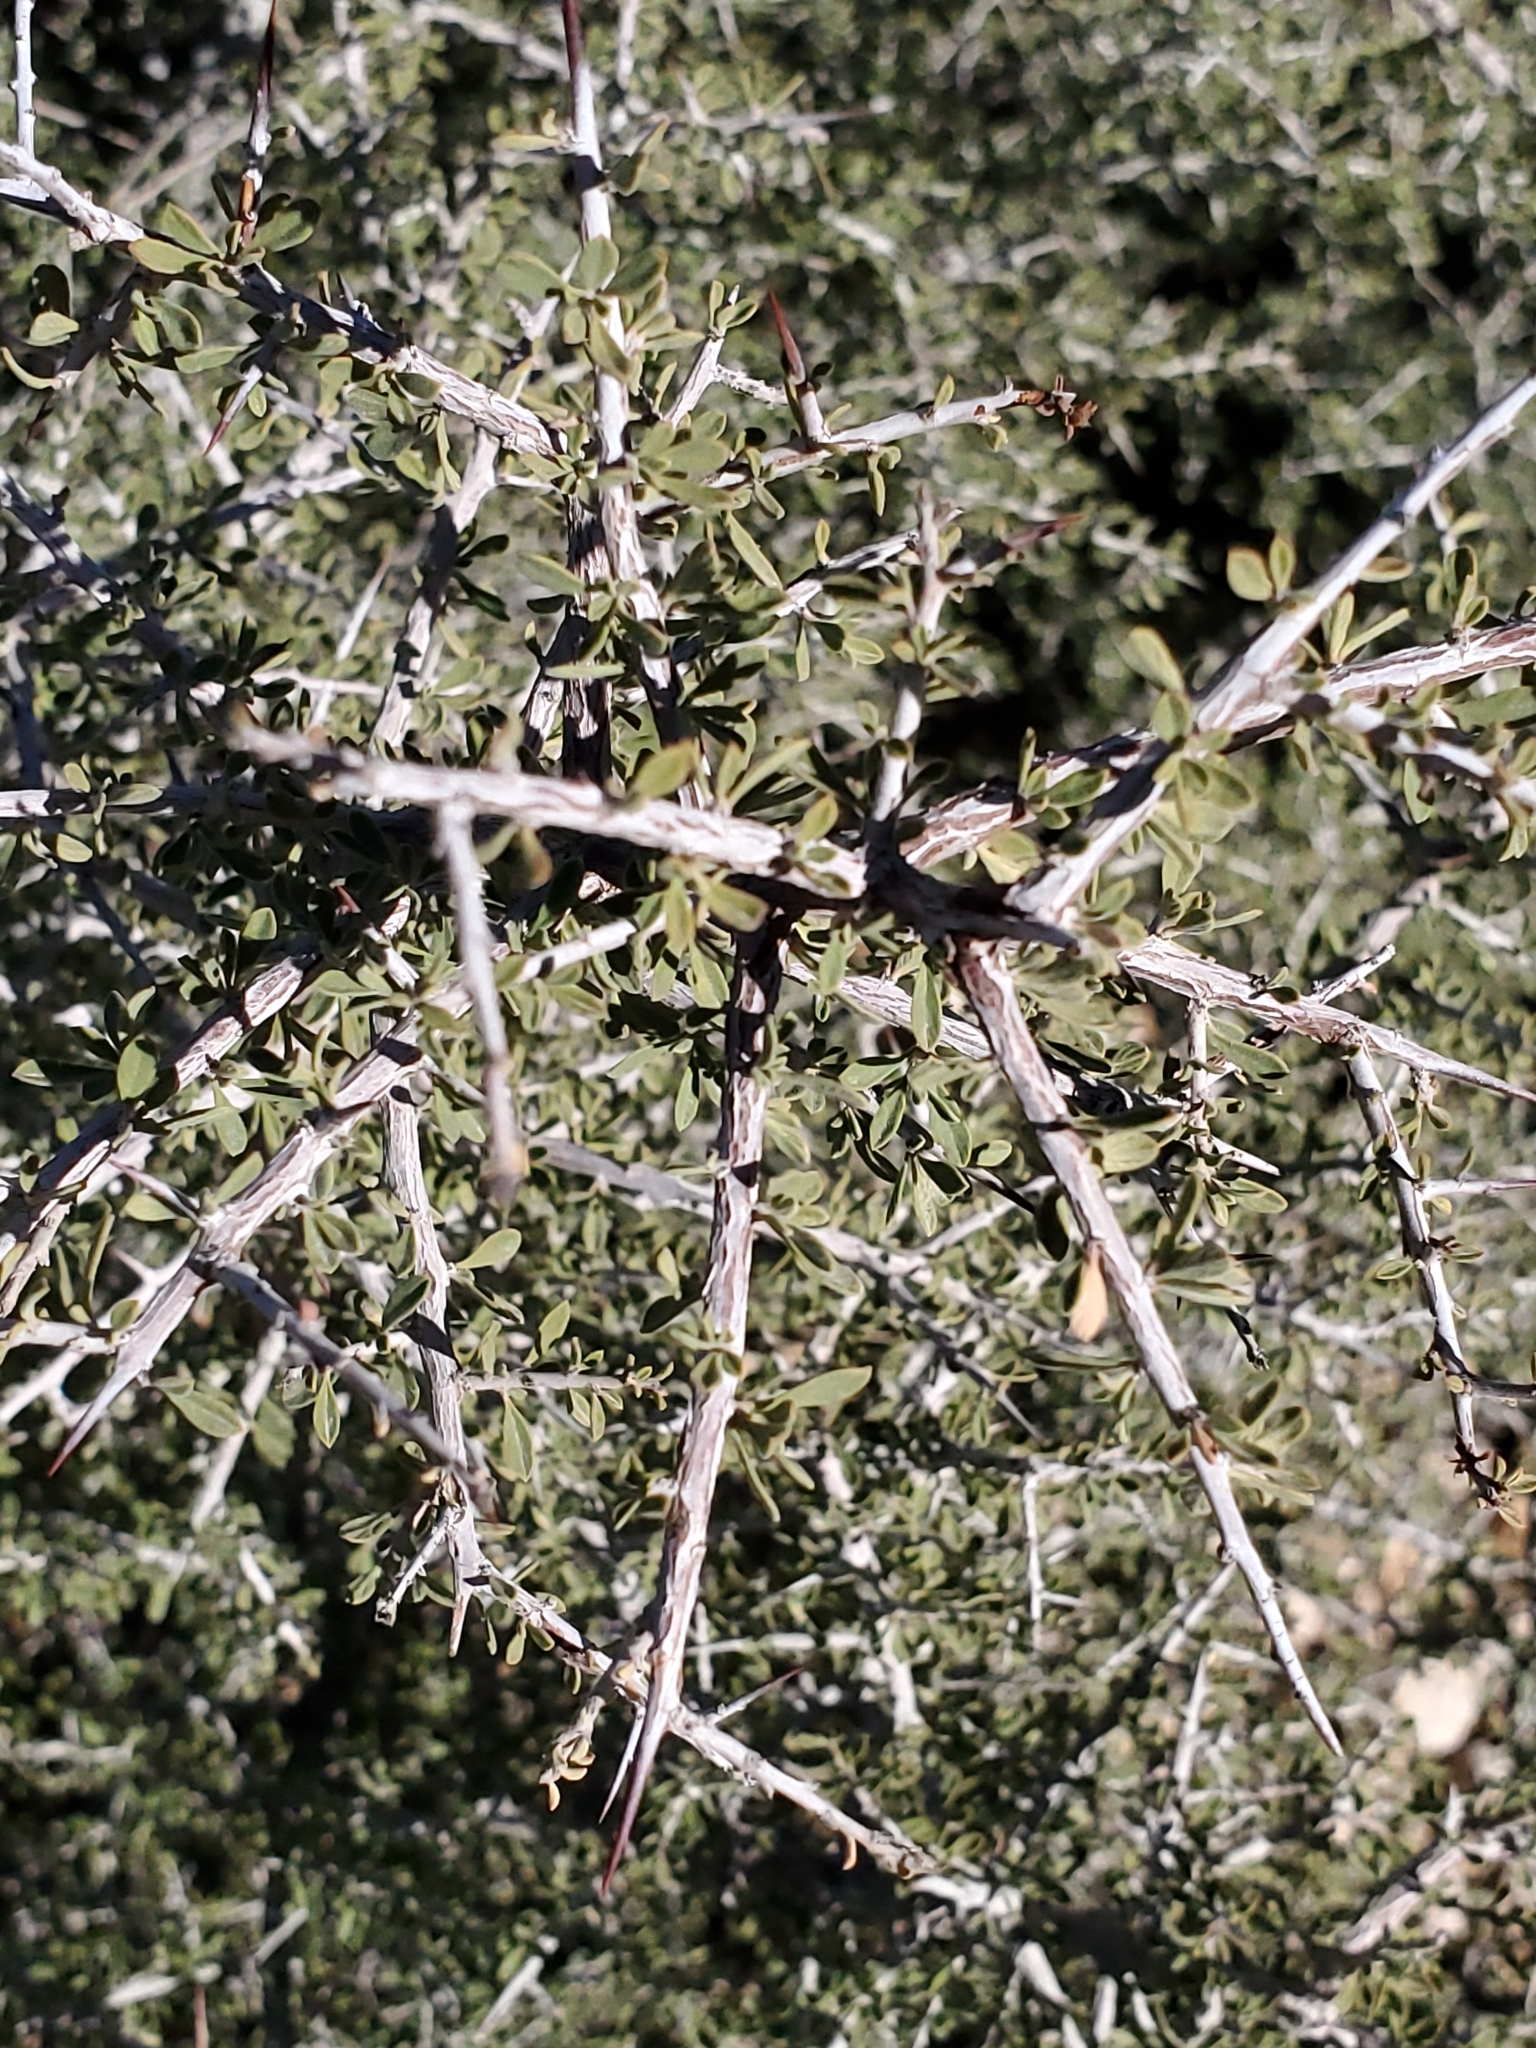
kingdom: Plantae
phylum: Tracheophyta
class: Magnoliopsida
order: Rosales
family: Rhamnaceae
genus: Condalia
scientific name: Condalia warnockii
